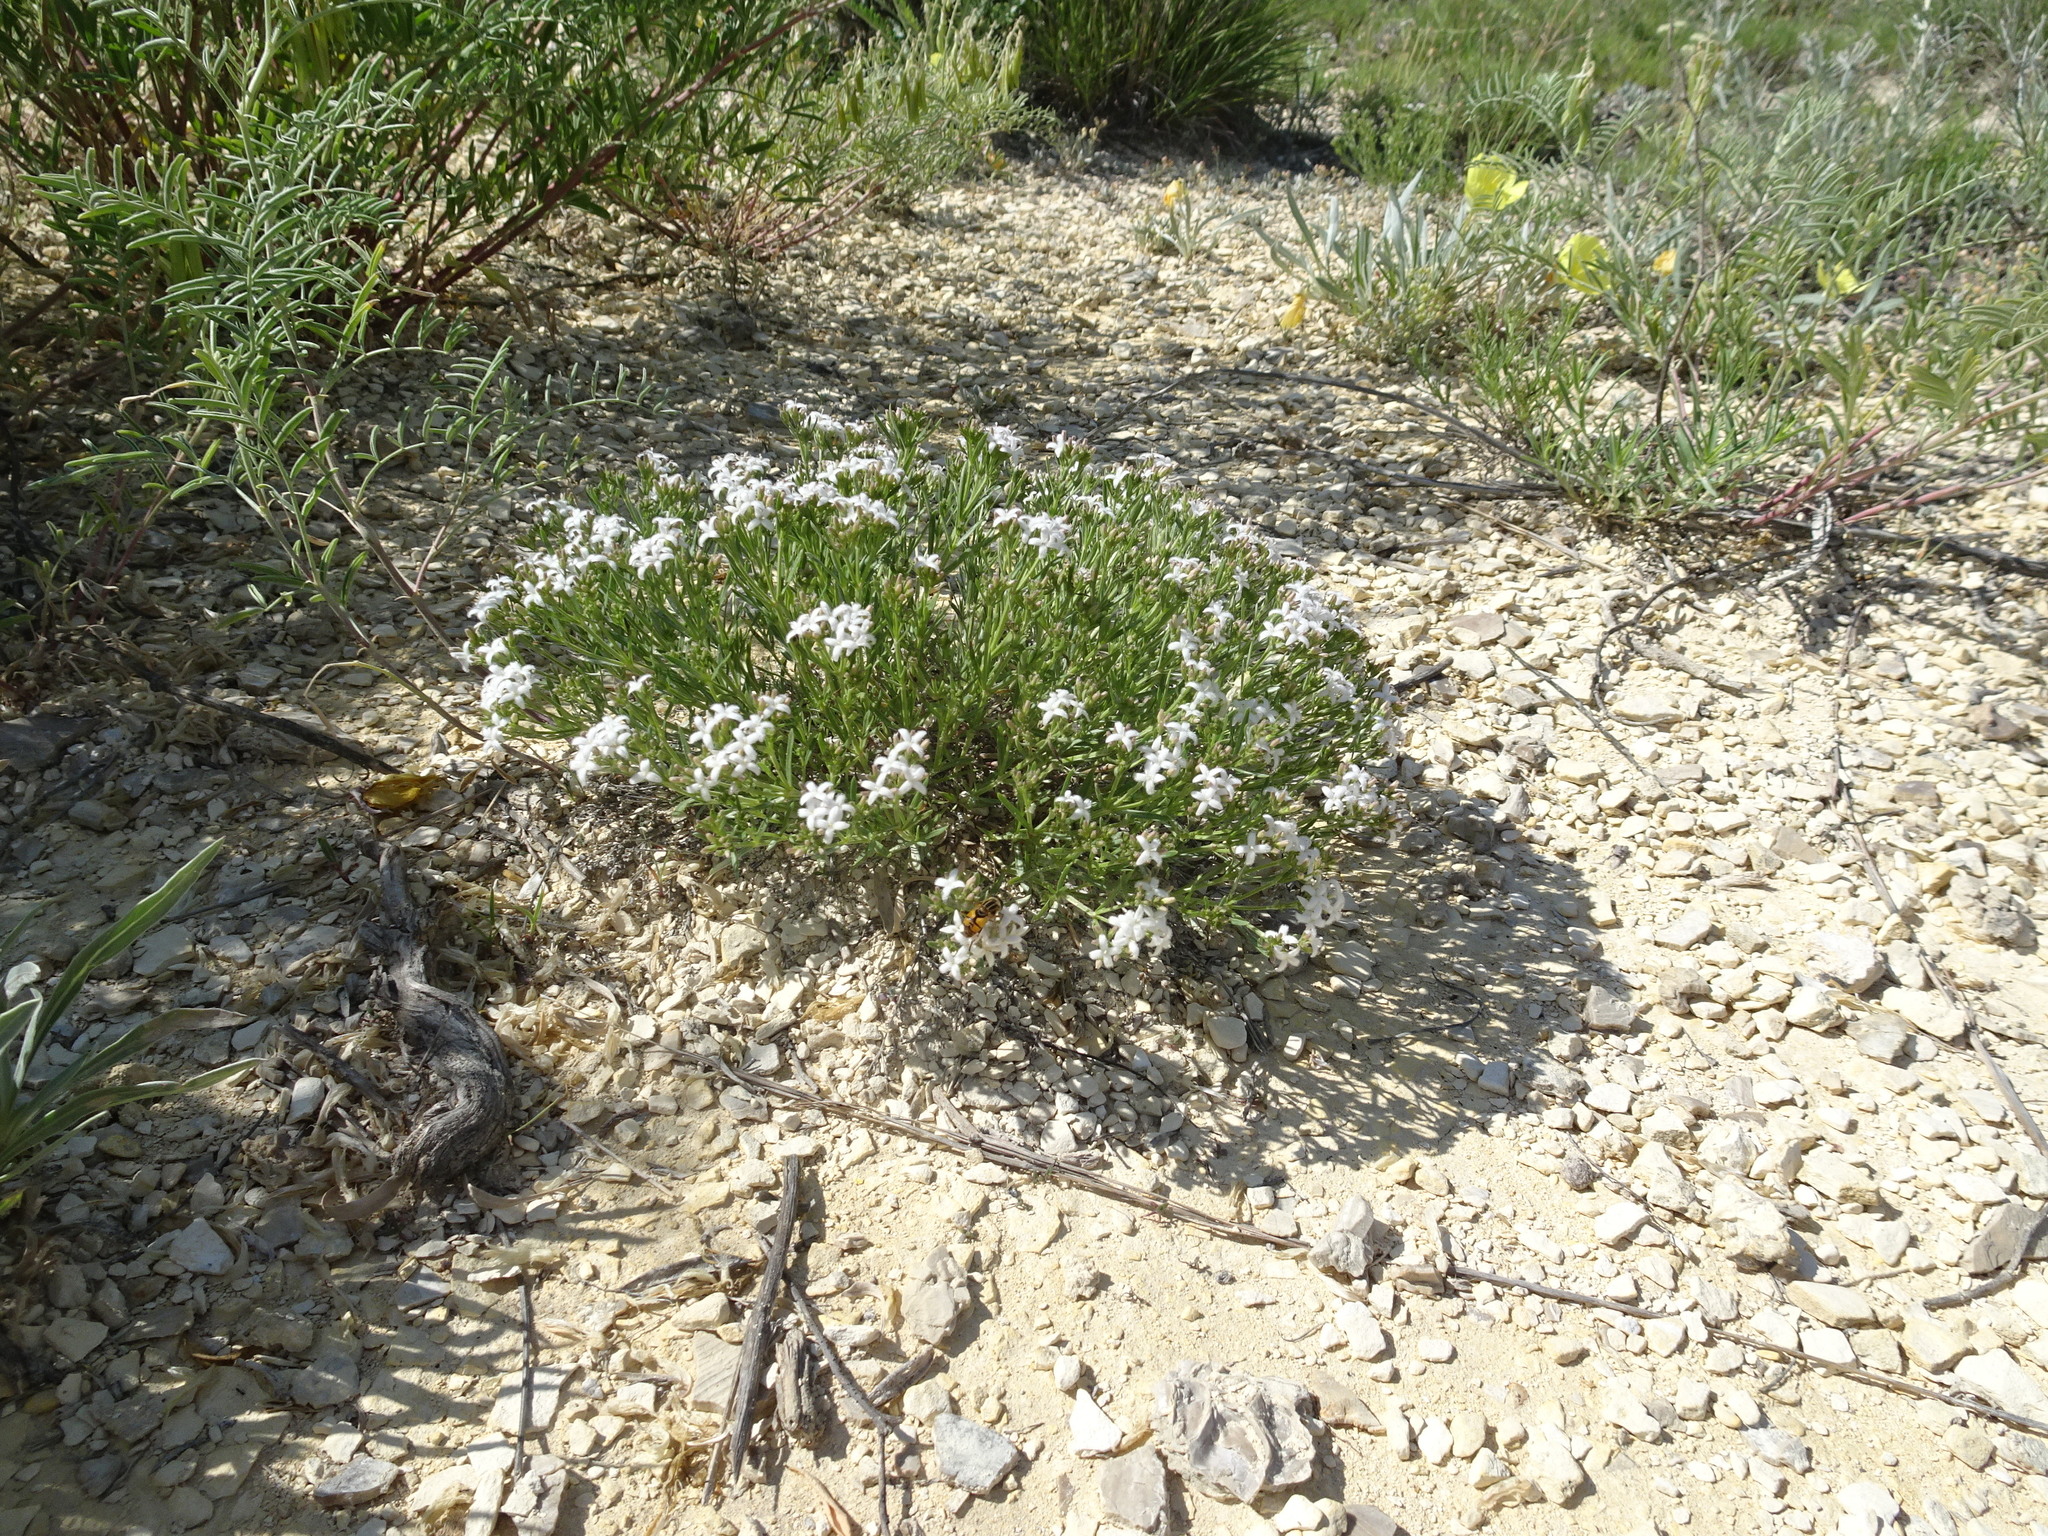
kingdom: Plantae
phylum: Tracheophyta
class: Magnoliopsida
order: Gentianales
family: Rubiaceae
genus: Stenaria
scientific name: Stenaria nigricans
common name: Diamondflowers
